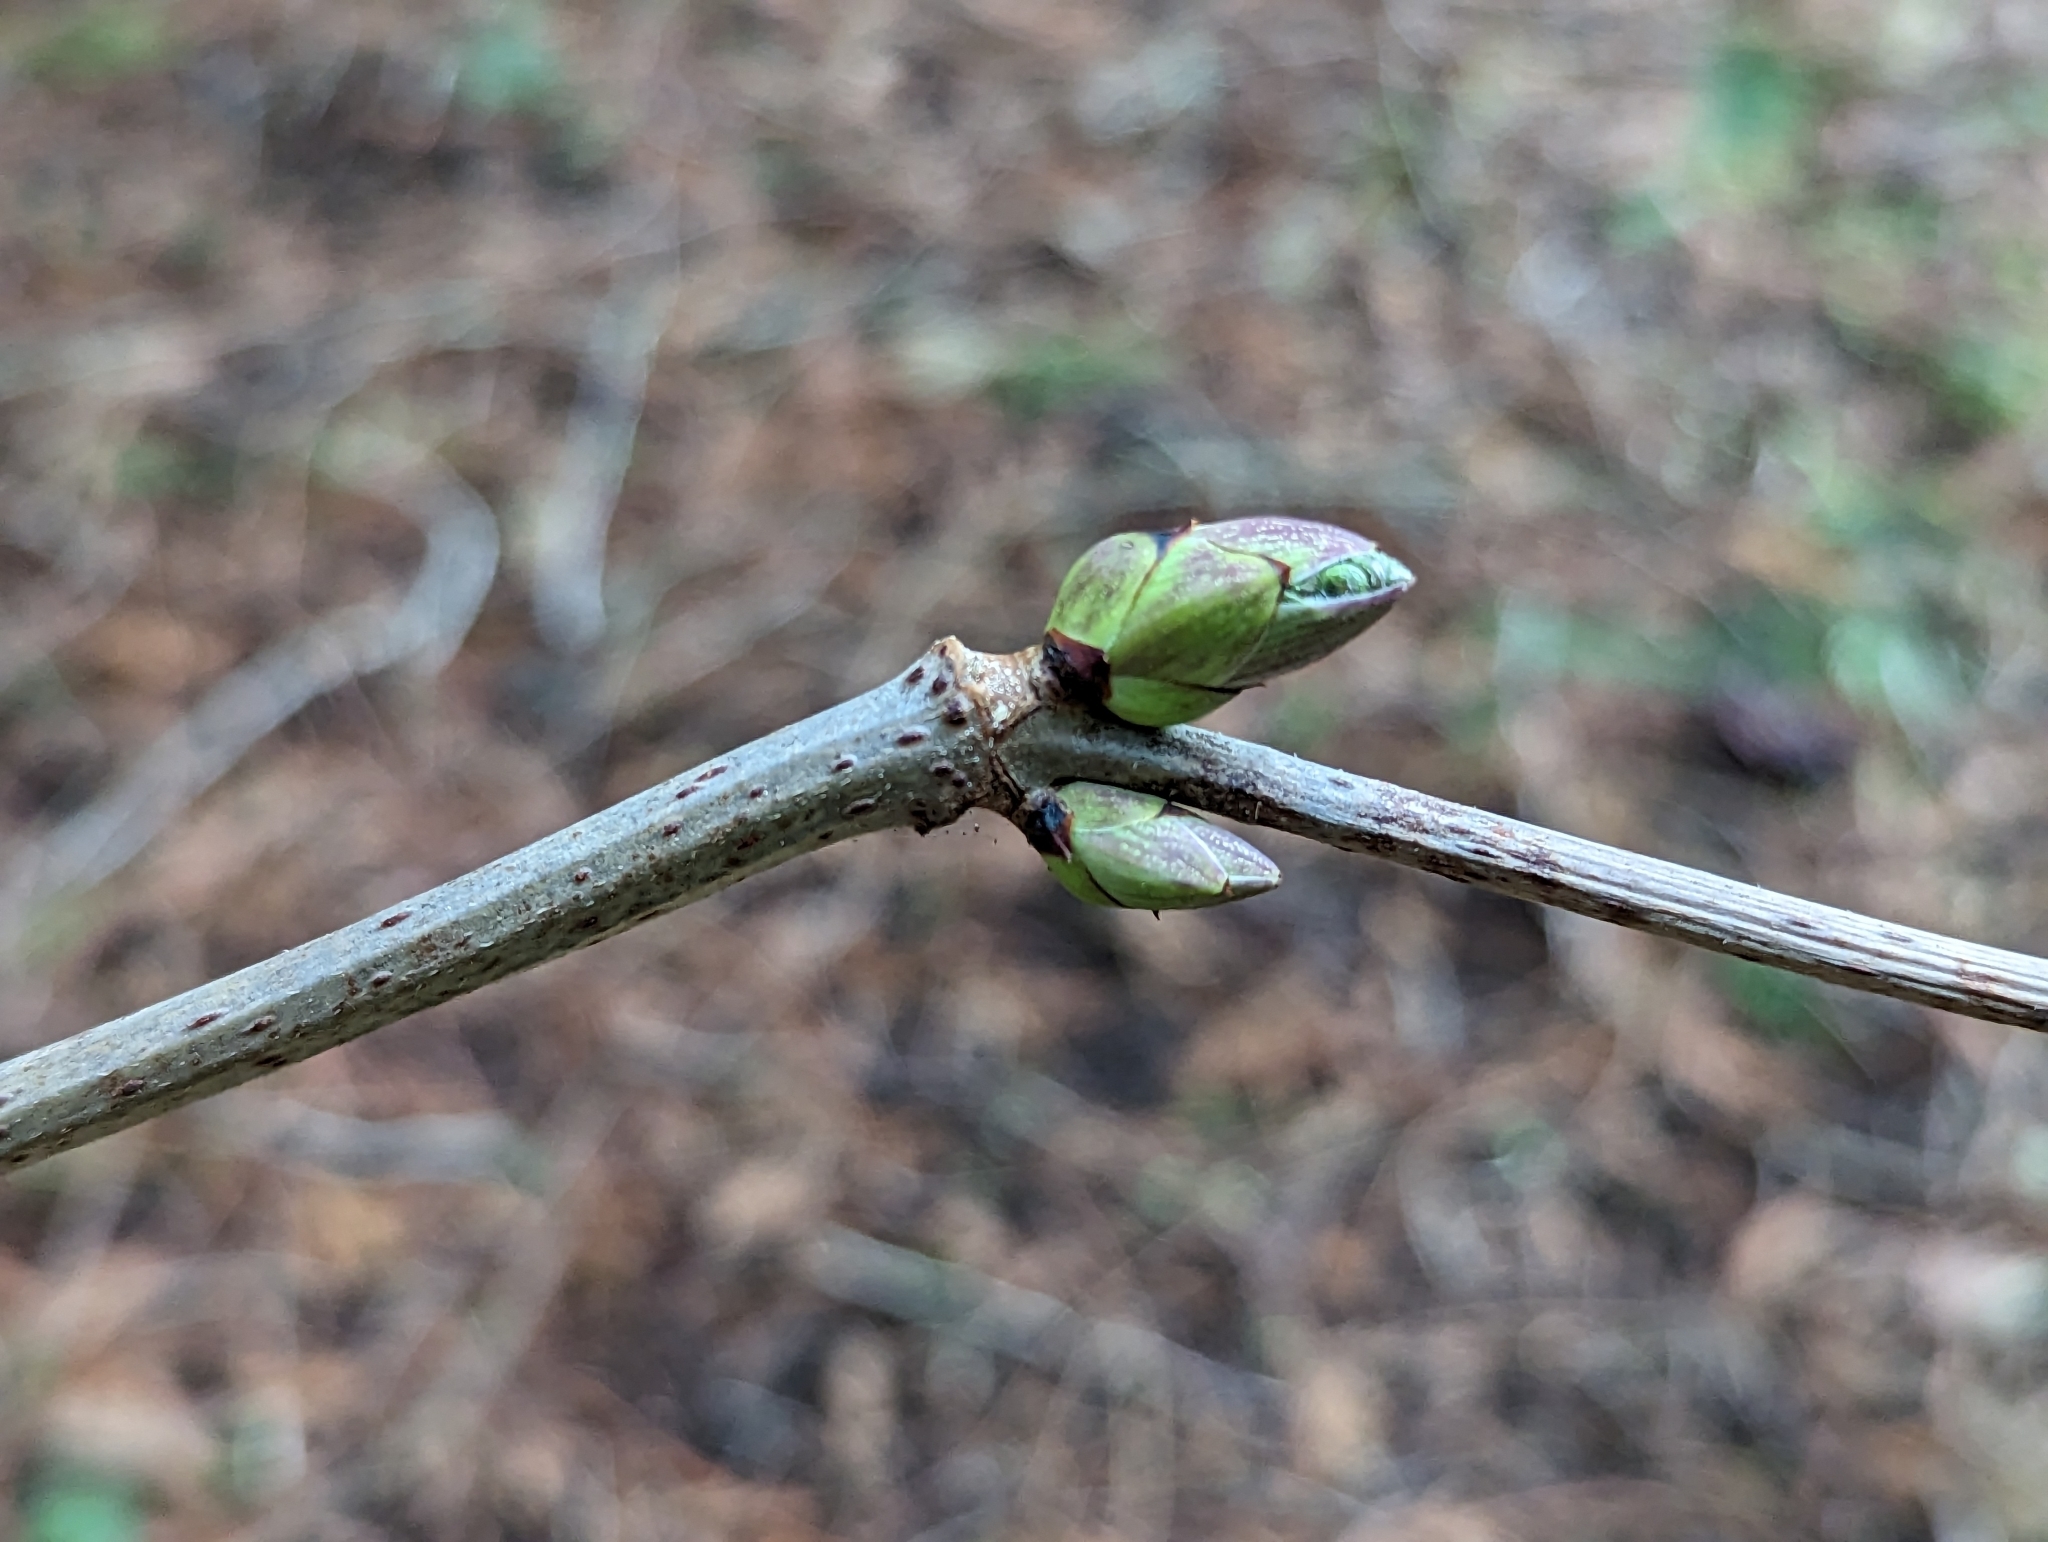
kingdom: Plantae
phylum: Tracheophyta
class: Magnoliopsida
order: Dipsacales
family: Viburnaceae
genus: Sambucus
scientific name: Sambucus racemosa
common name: Red-berried elder
